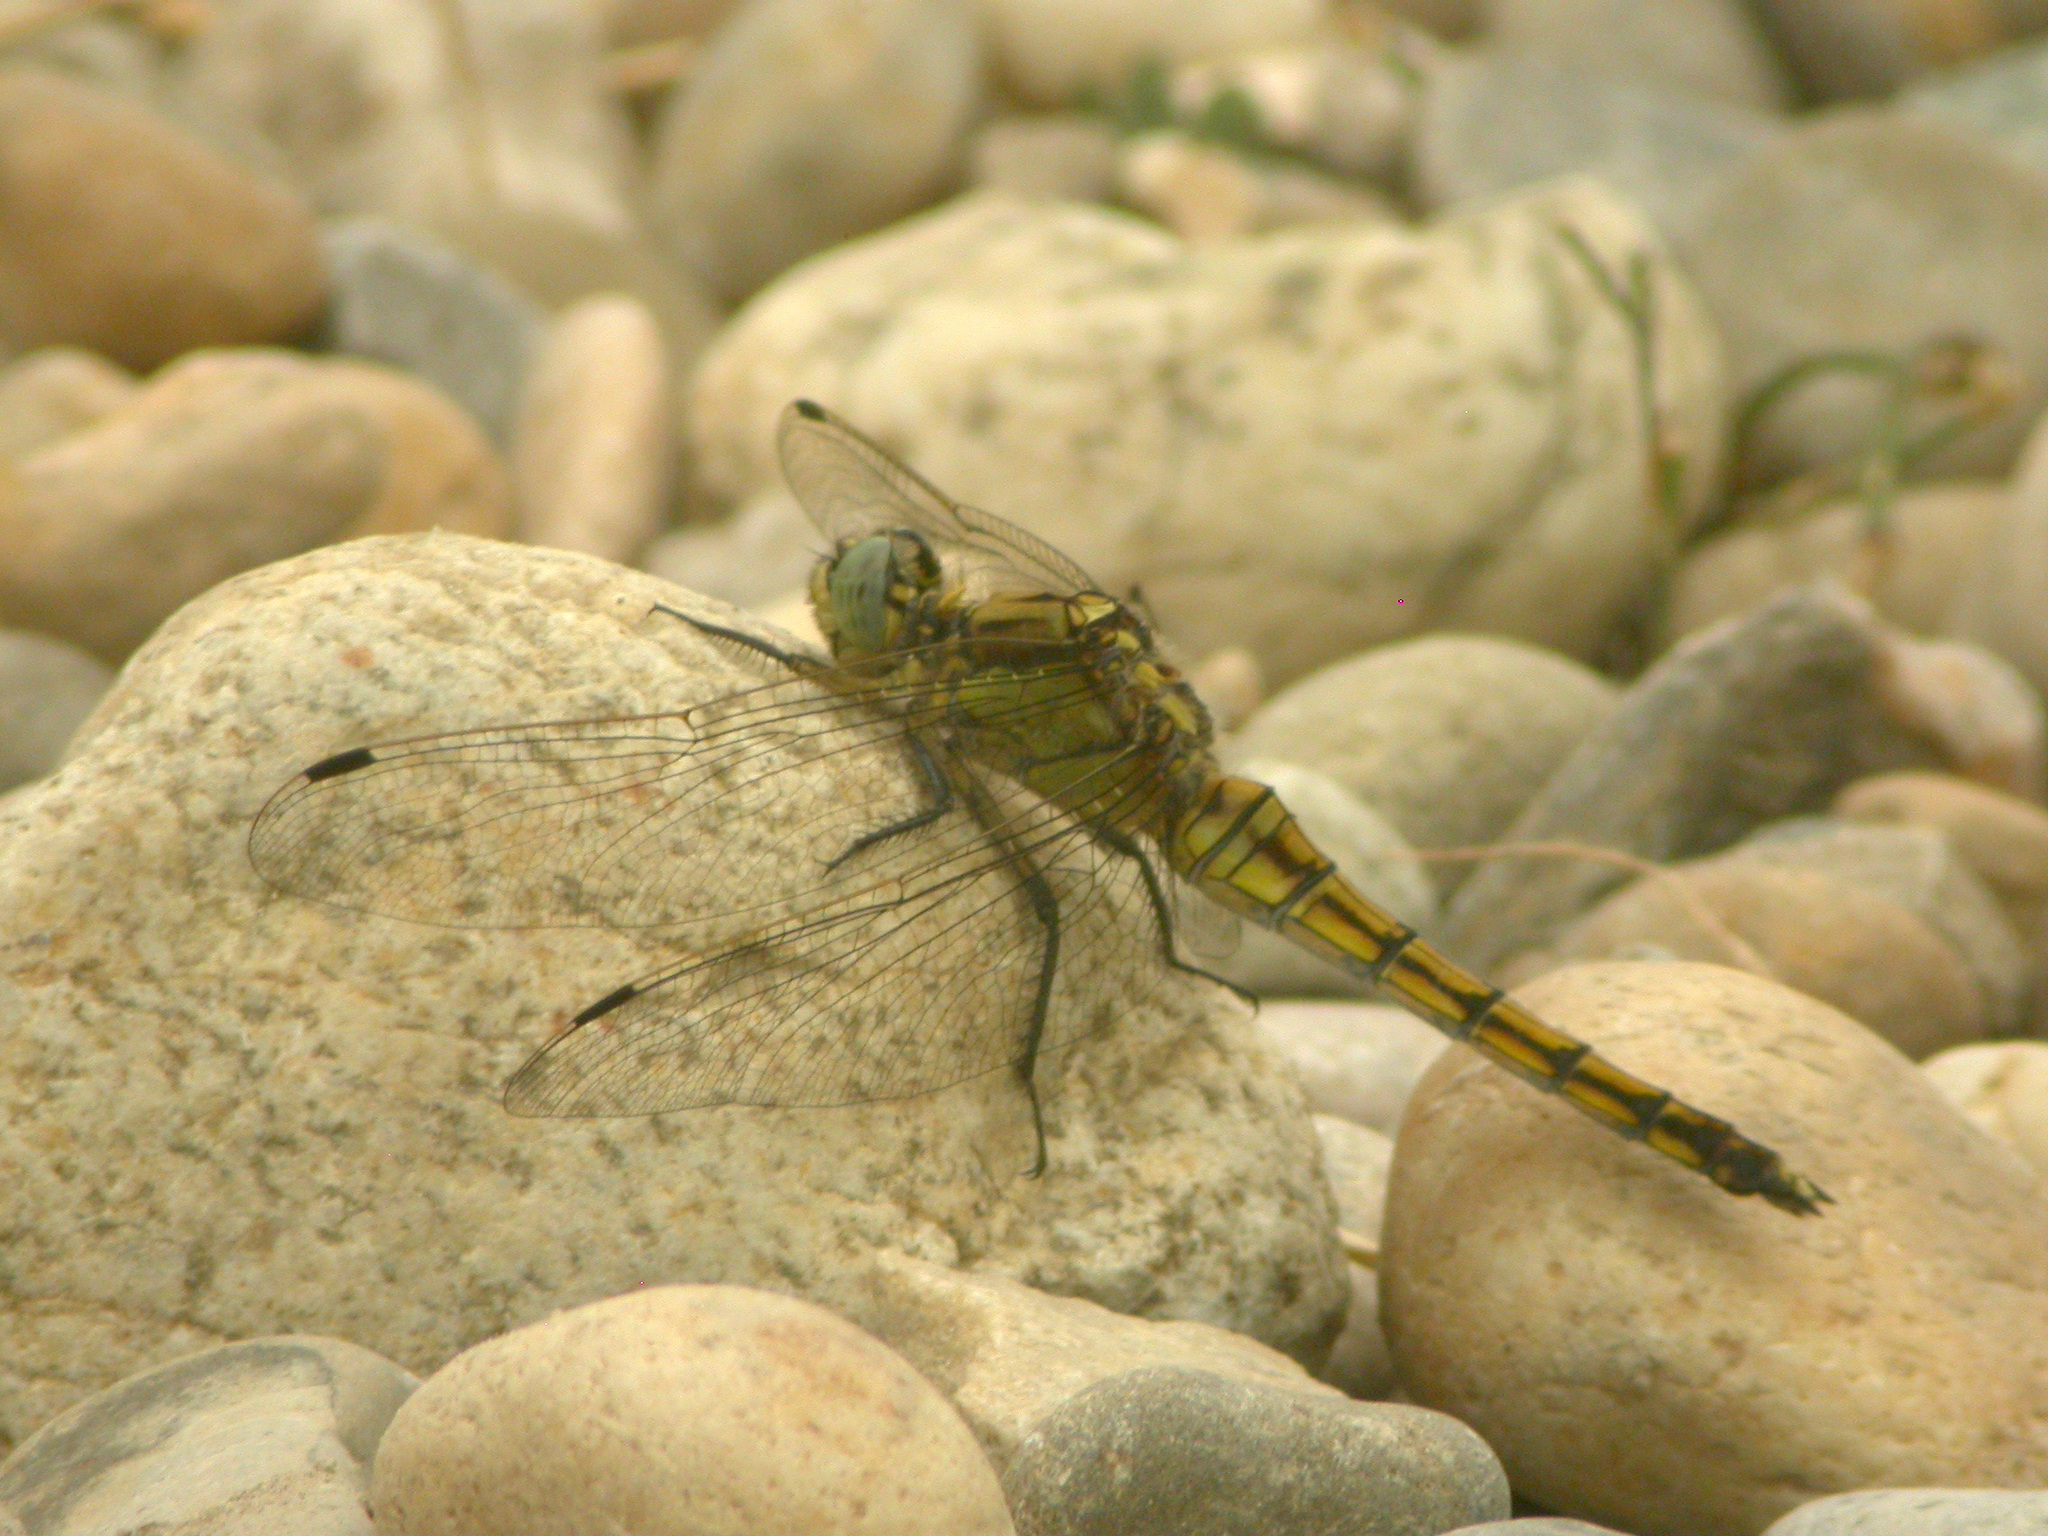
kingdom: Animalia
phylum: Arthropoda
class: Insecta
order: Odonata
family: Libellulidae
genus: Orthetrum
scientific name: Orthetrum cancellatum
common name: Black-tailed skimmer
